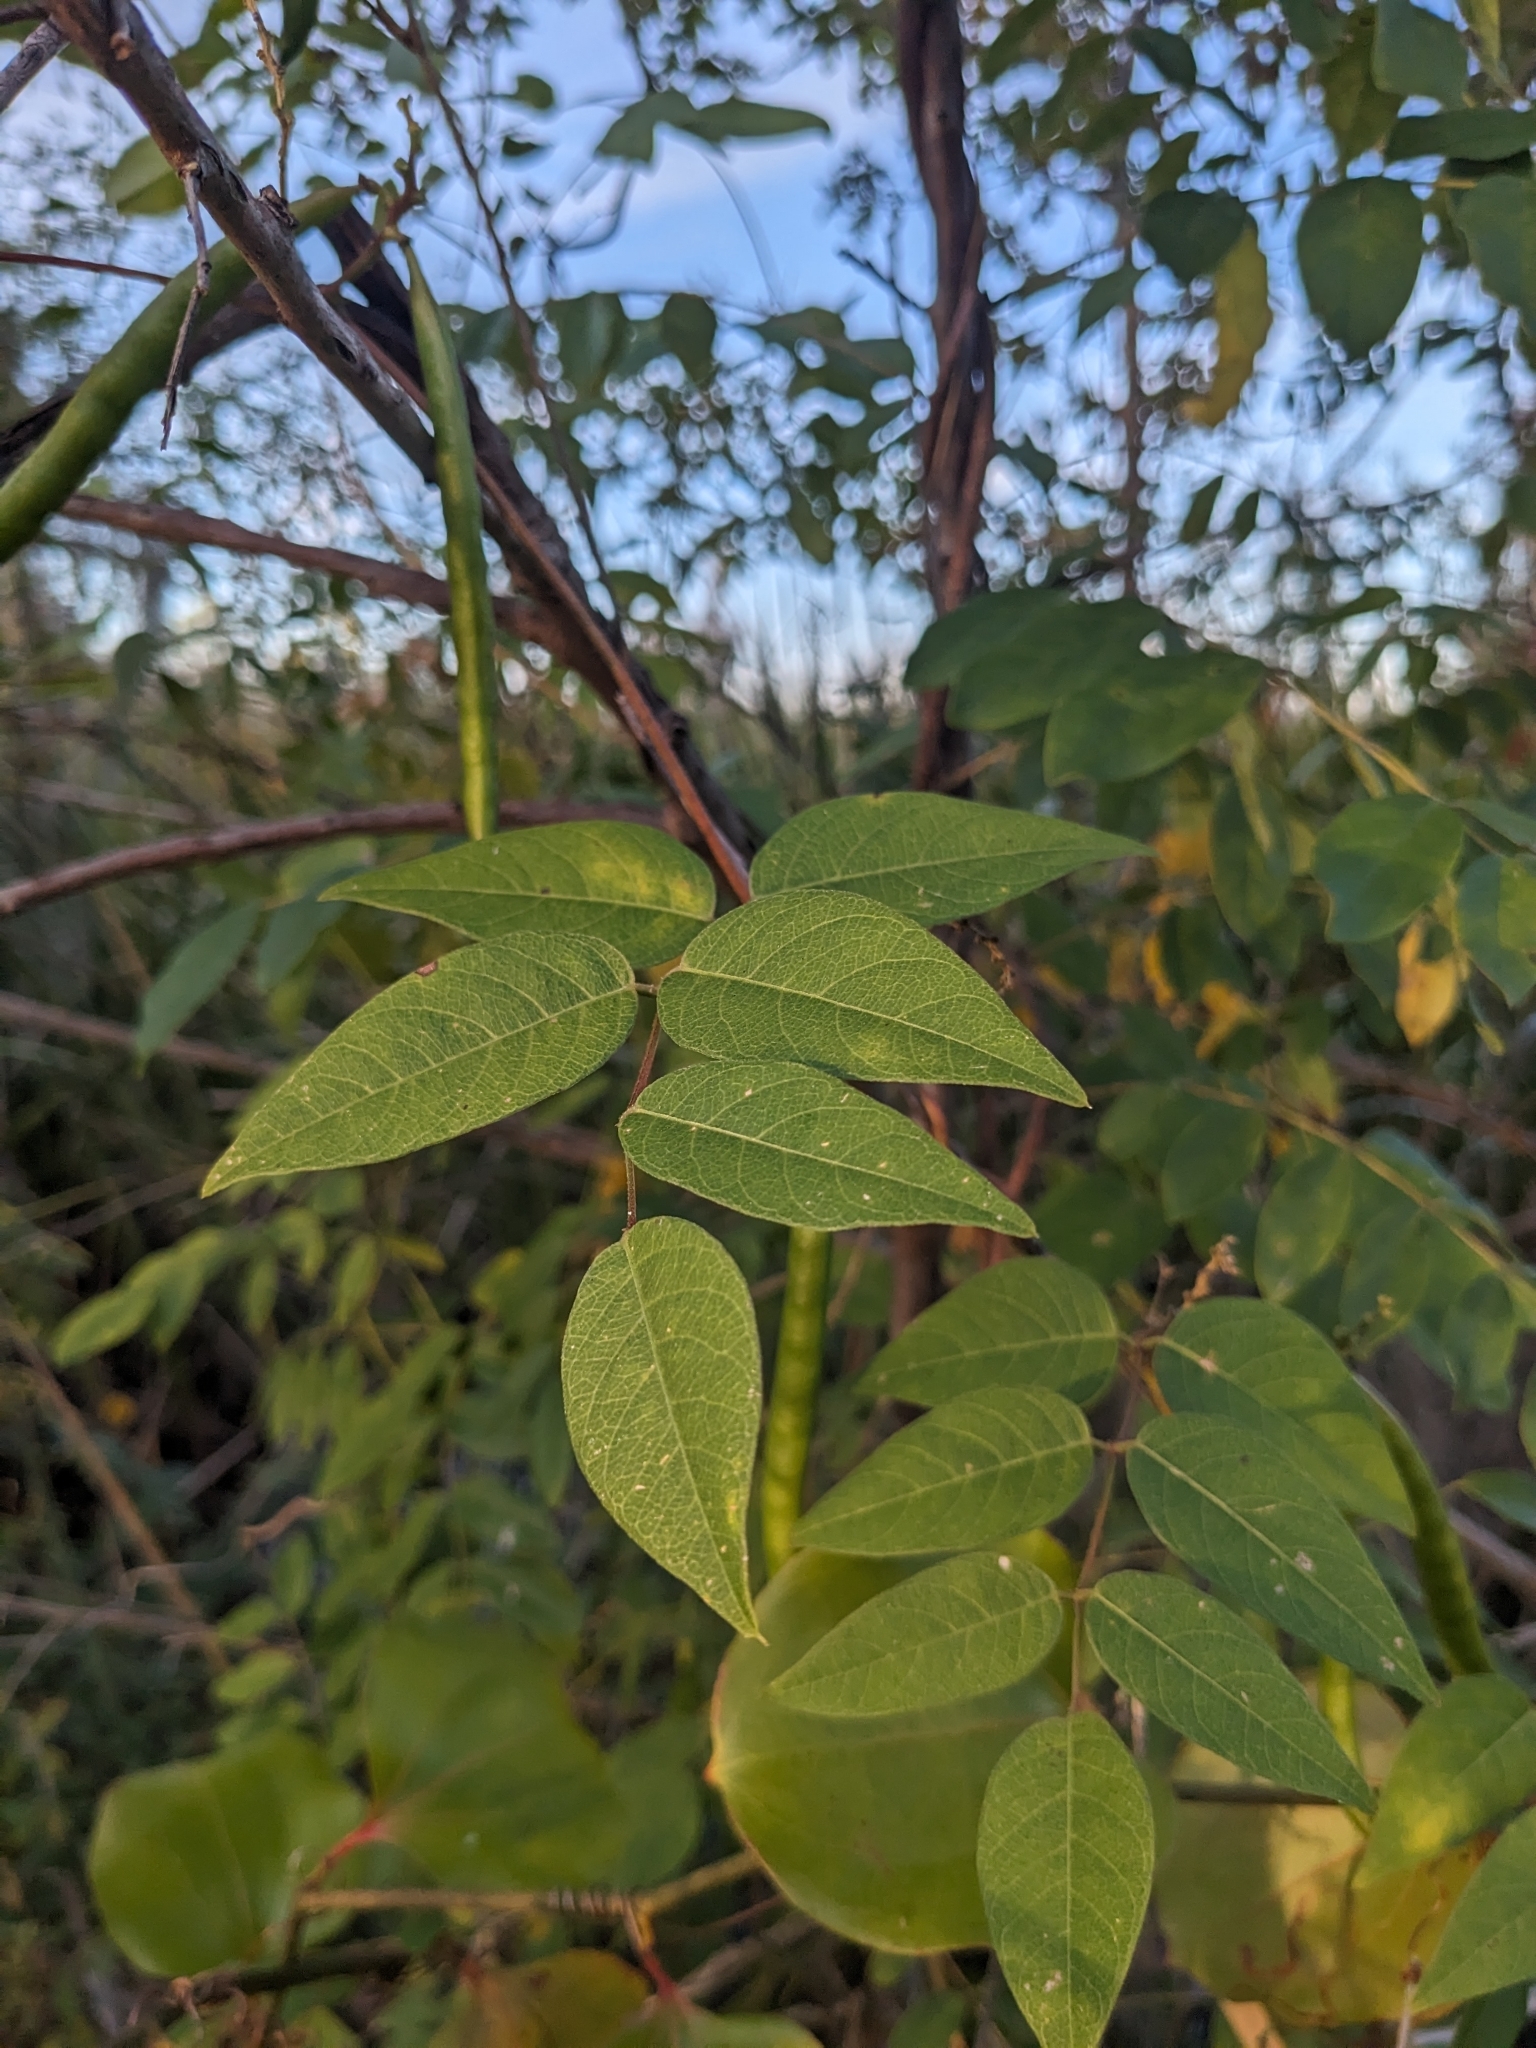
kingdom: Plantae
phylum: Tracheophyta
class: Magnoliopsida
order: Fabales
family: Fabaceae
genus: Apios
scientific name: Apios americana
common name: American potato-bean
